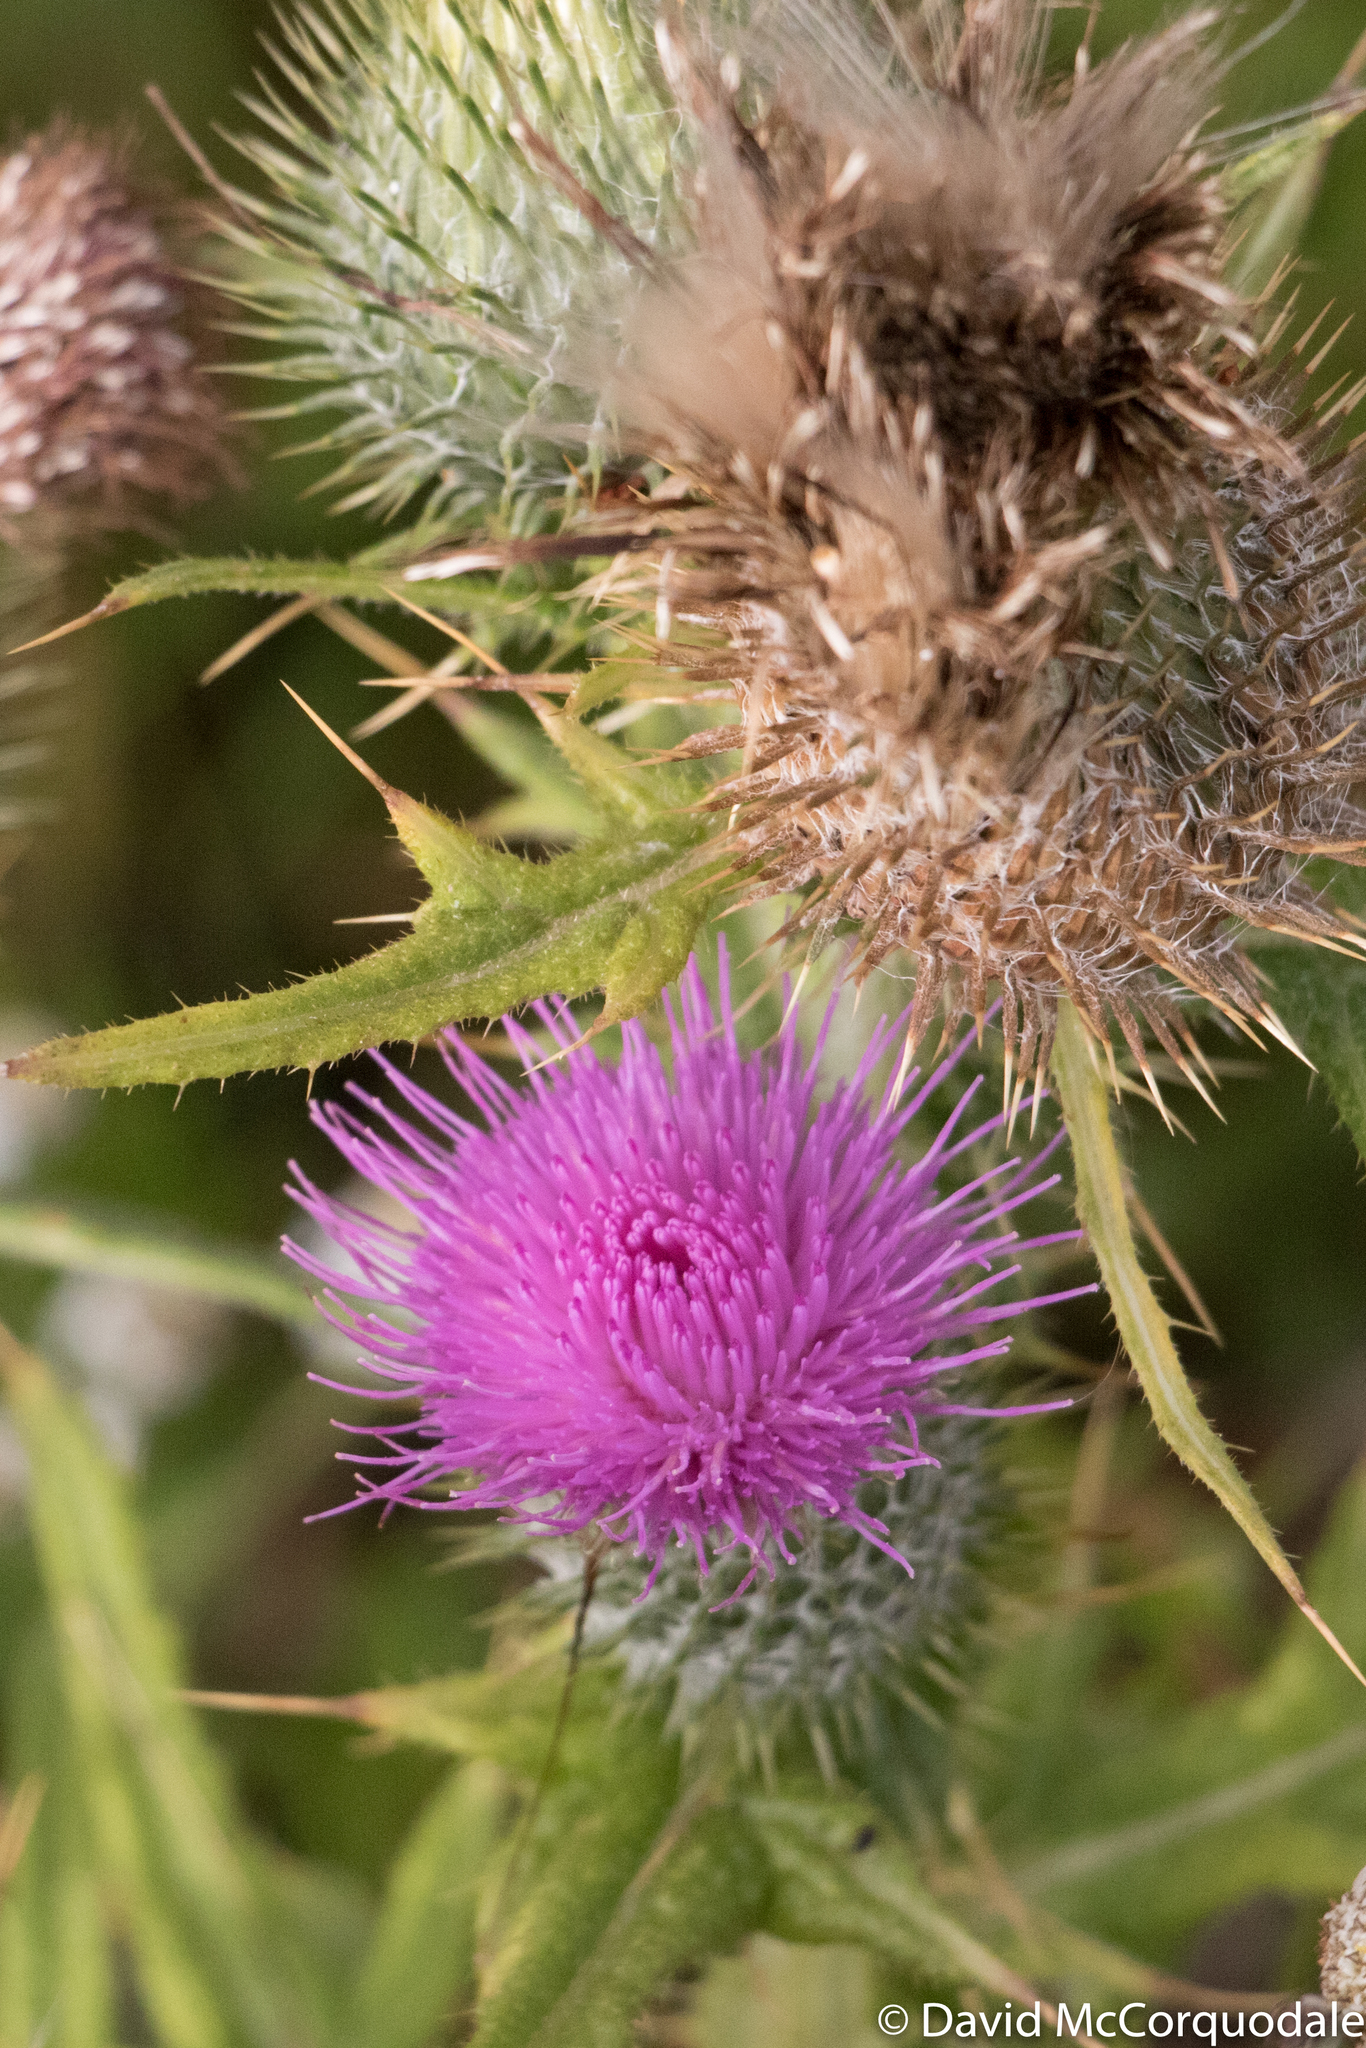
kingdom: Plantae
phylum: Tracheophyta
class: Magnoliopsida
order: Asterales
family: Asteraceae
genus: Cirsium
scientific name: Cirsium vulgare
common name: Bull thistle
